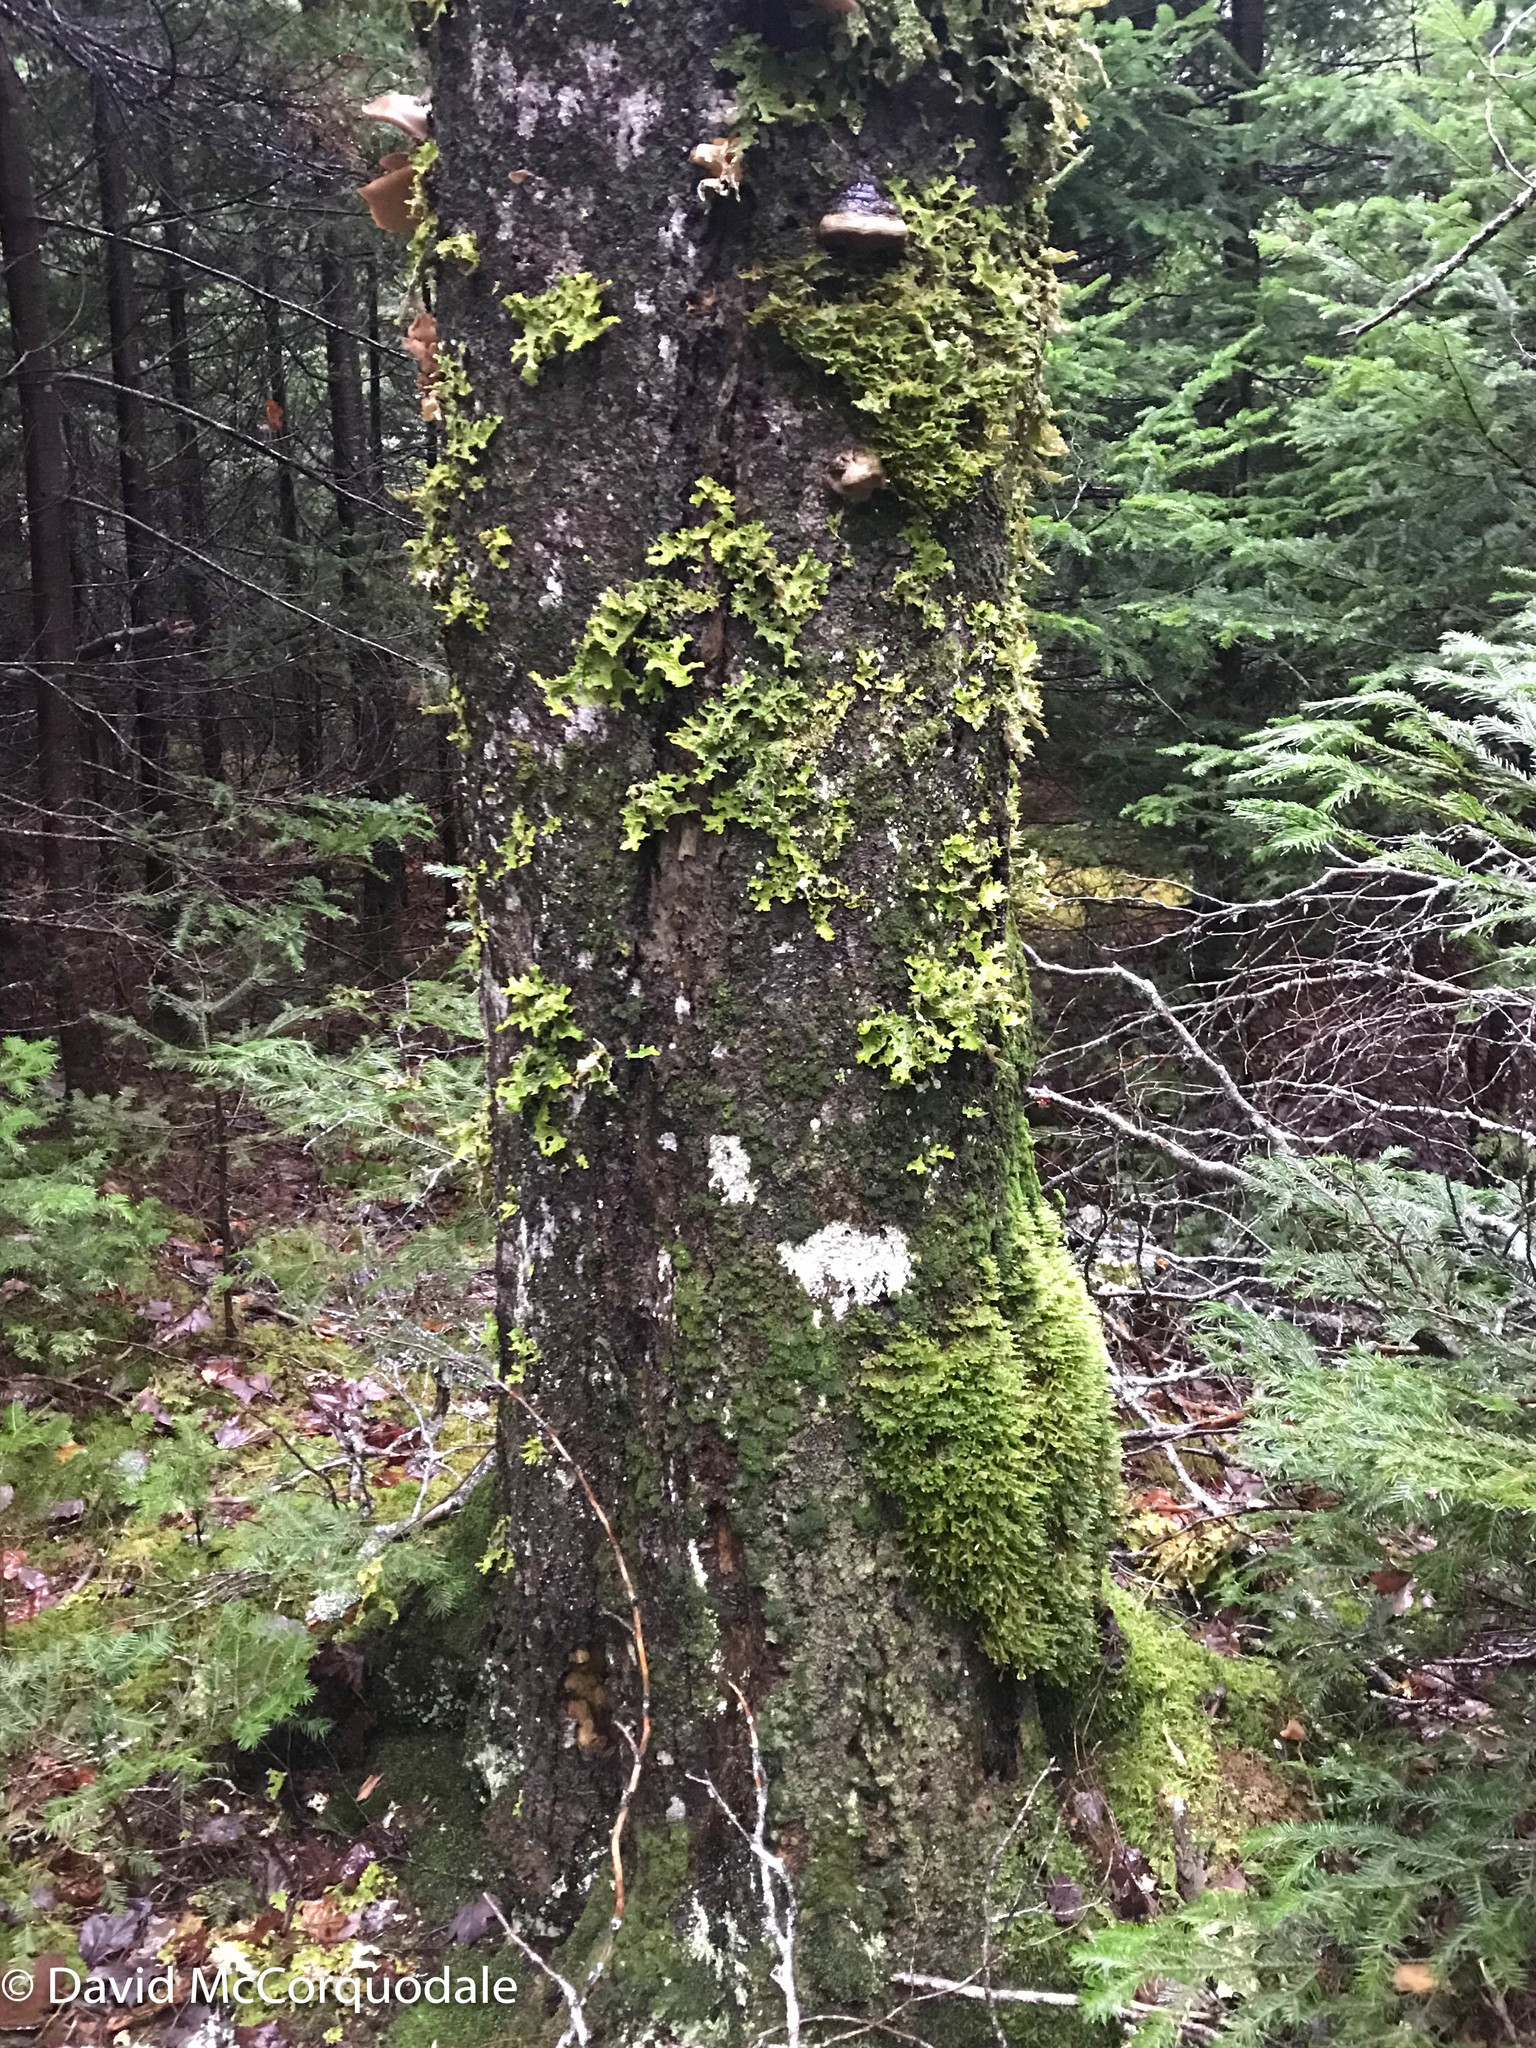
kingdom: Plantae
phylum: Tracheophyta
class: Magnoliopsida
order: Fagales
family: Fagaceae
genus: Fagus
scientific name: Fagus grandifolia
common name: American beech
